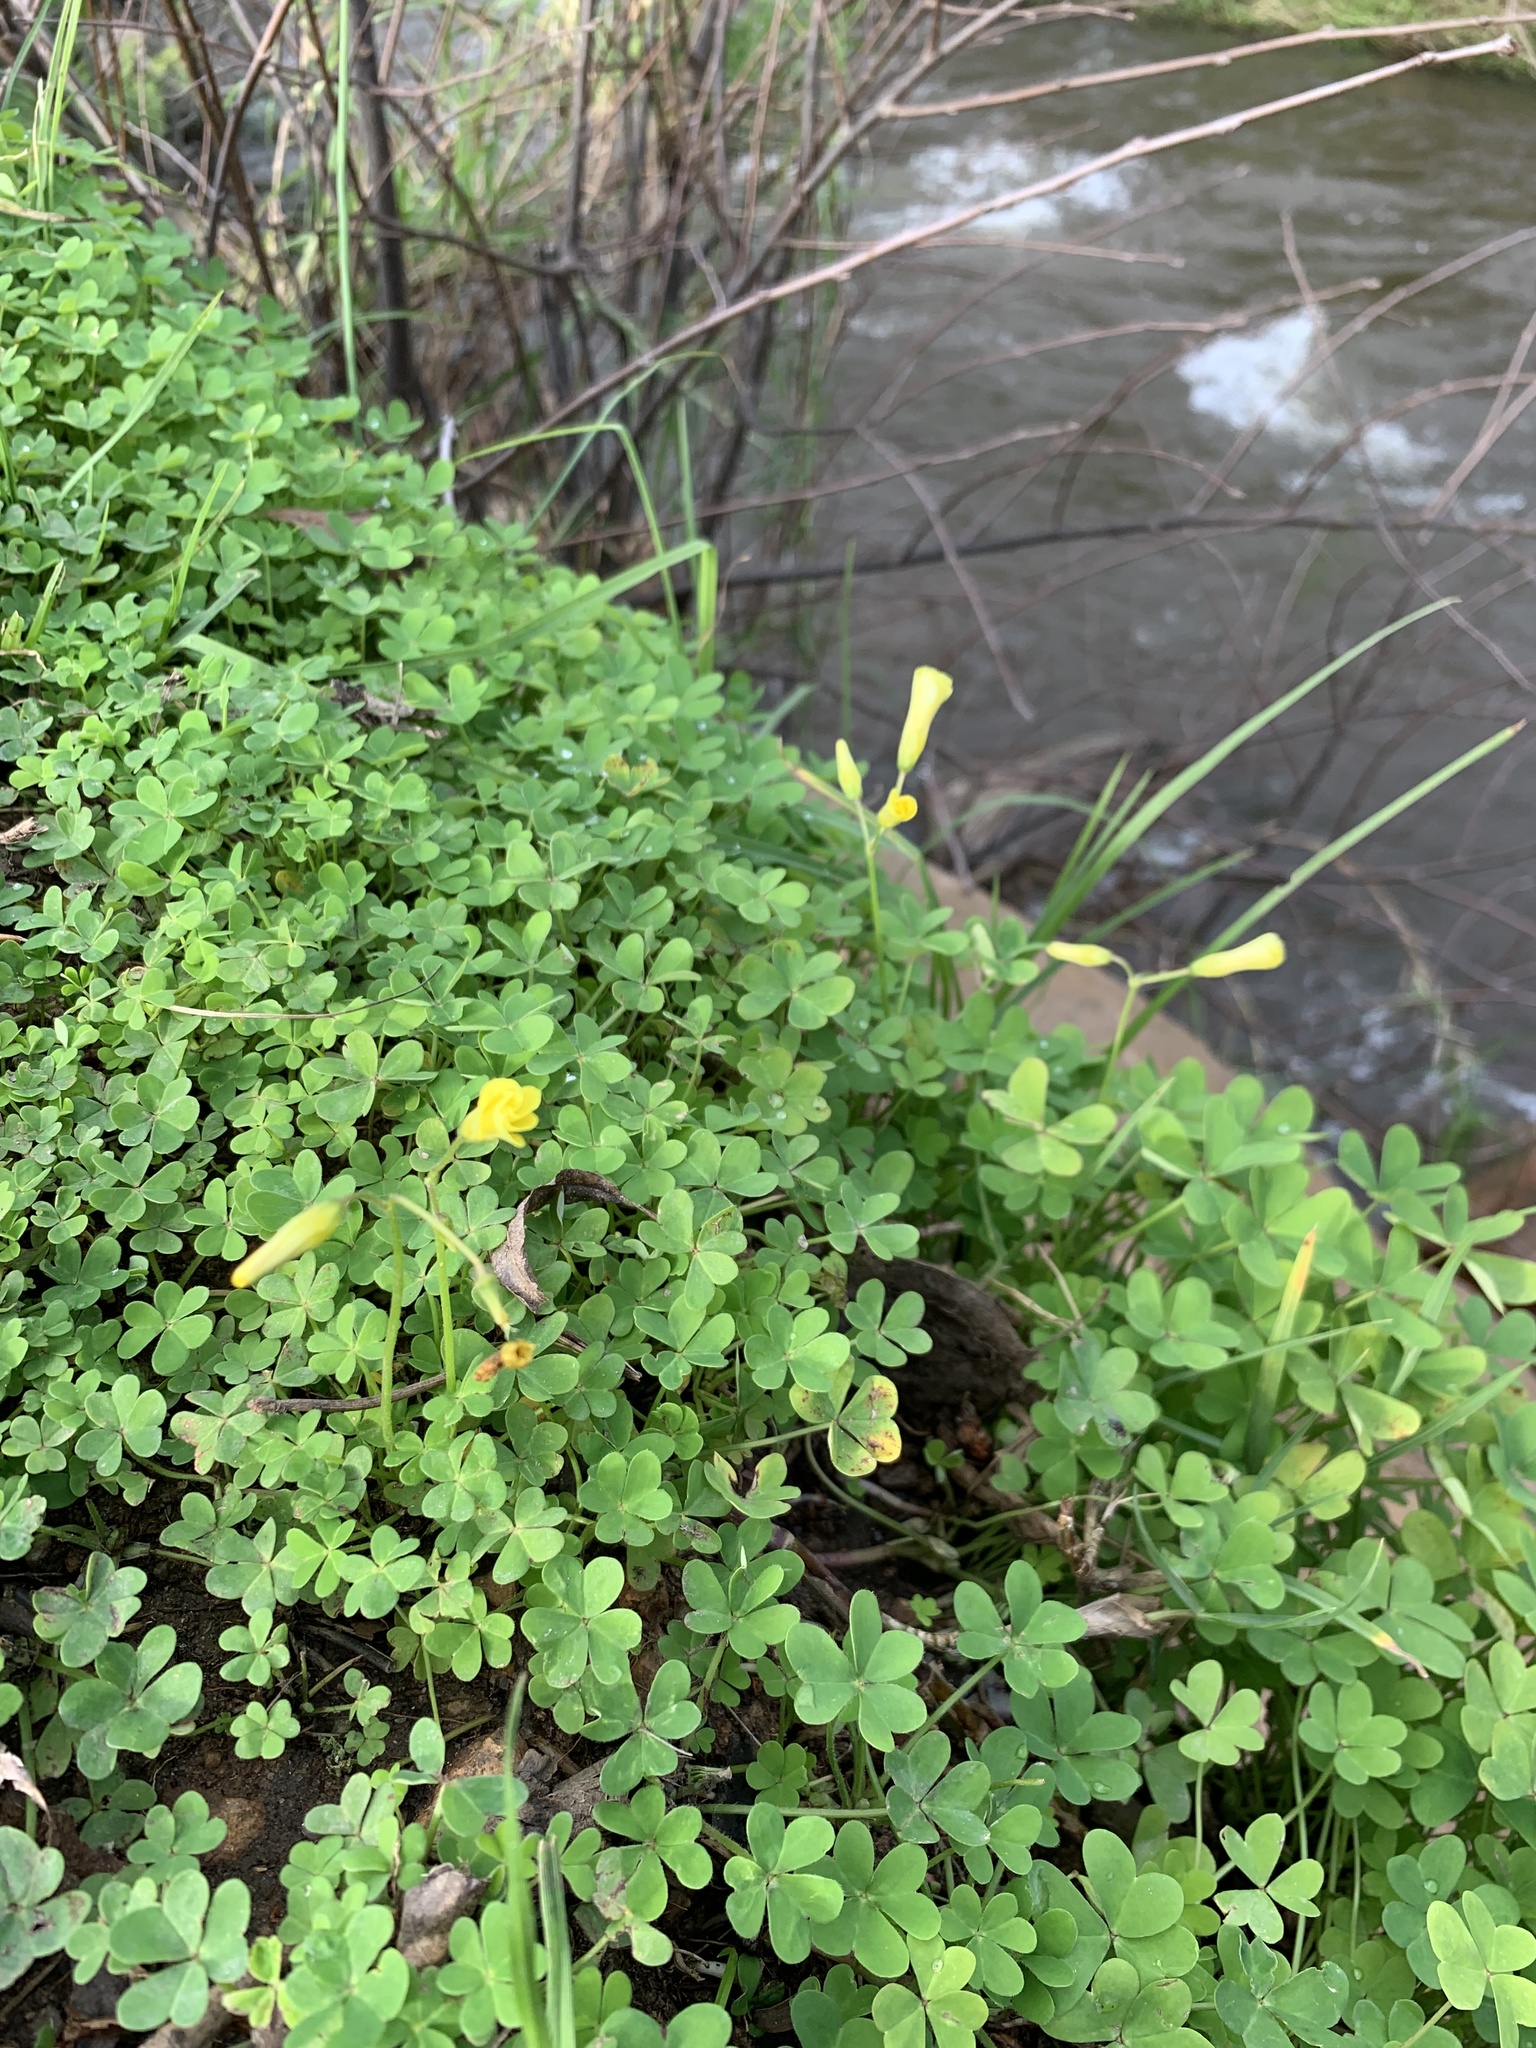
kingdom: Plantae
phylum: Tracheophyta
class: Magnoliopsida
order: Oxalidales
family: Oxalidaceae
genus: Oxalis
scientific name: Oxalis pes-caprae
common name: Bermuda-buttercup
